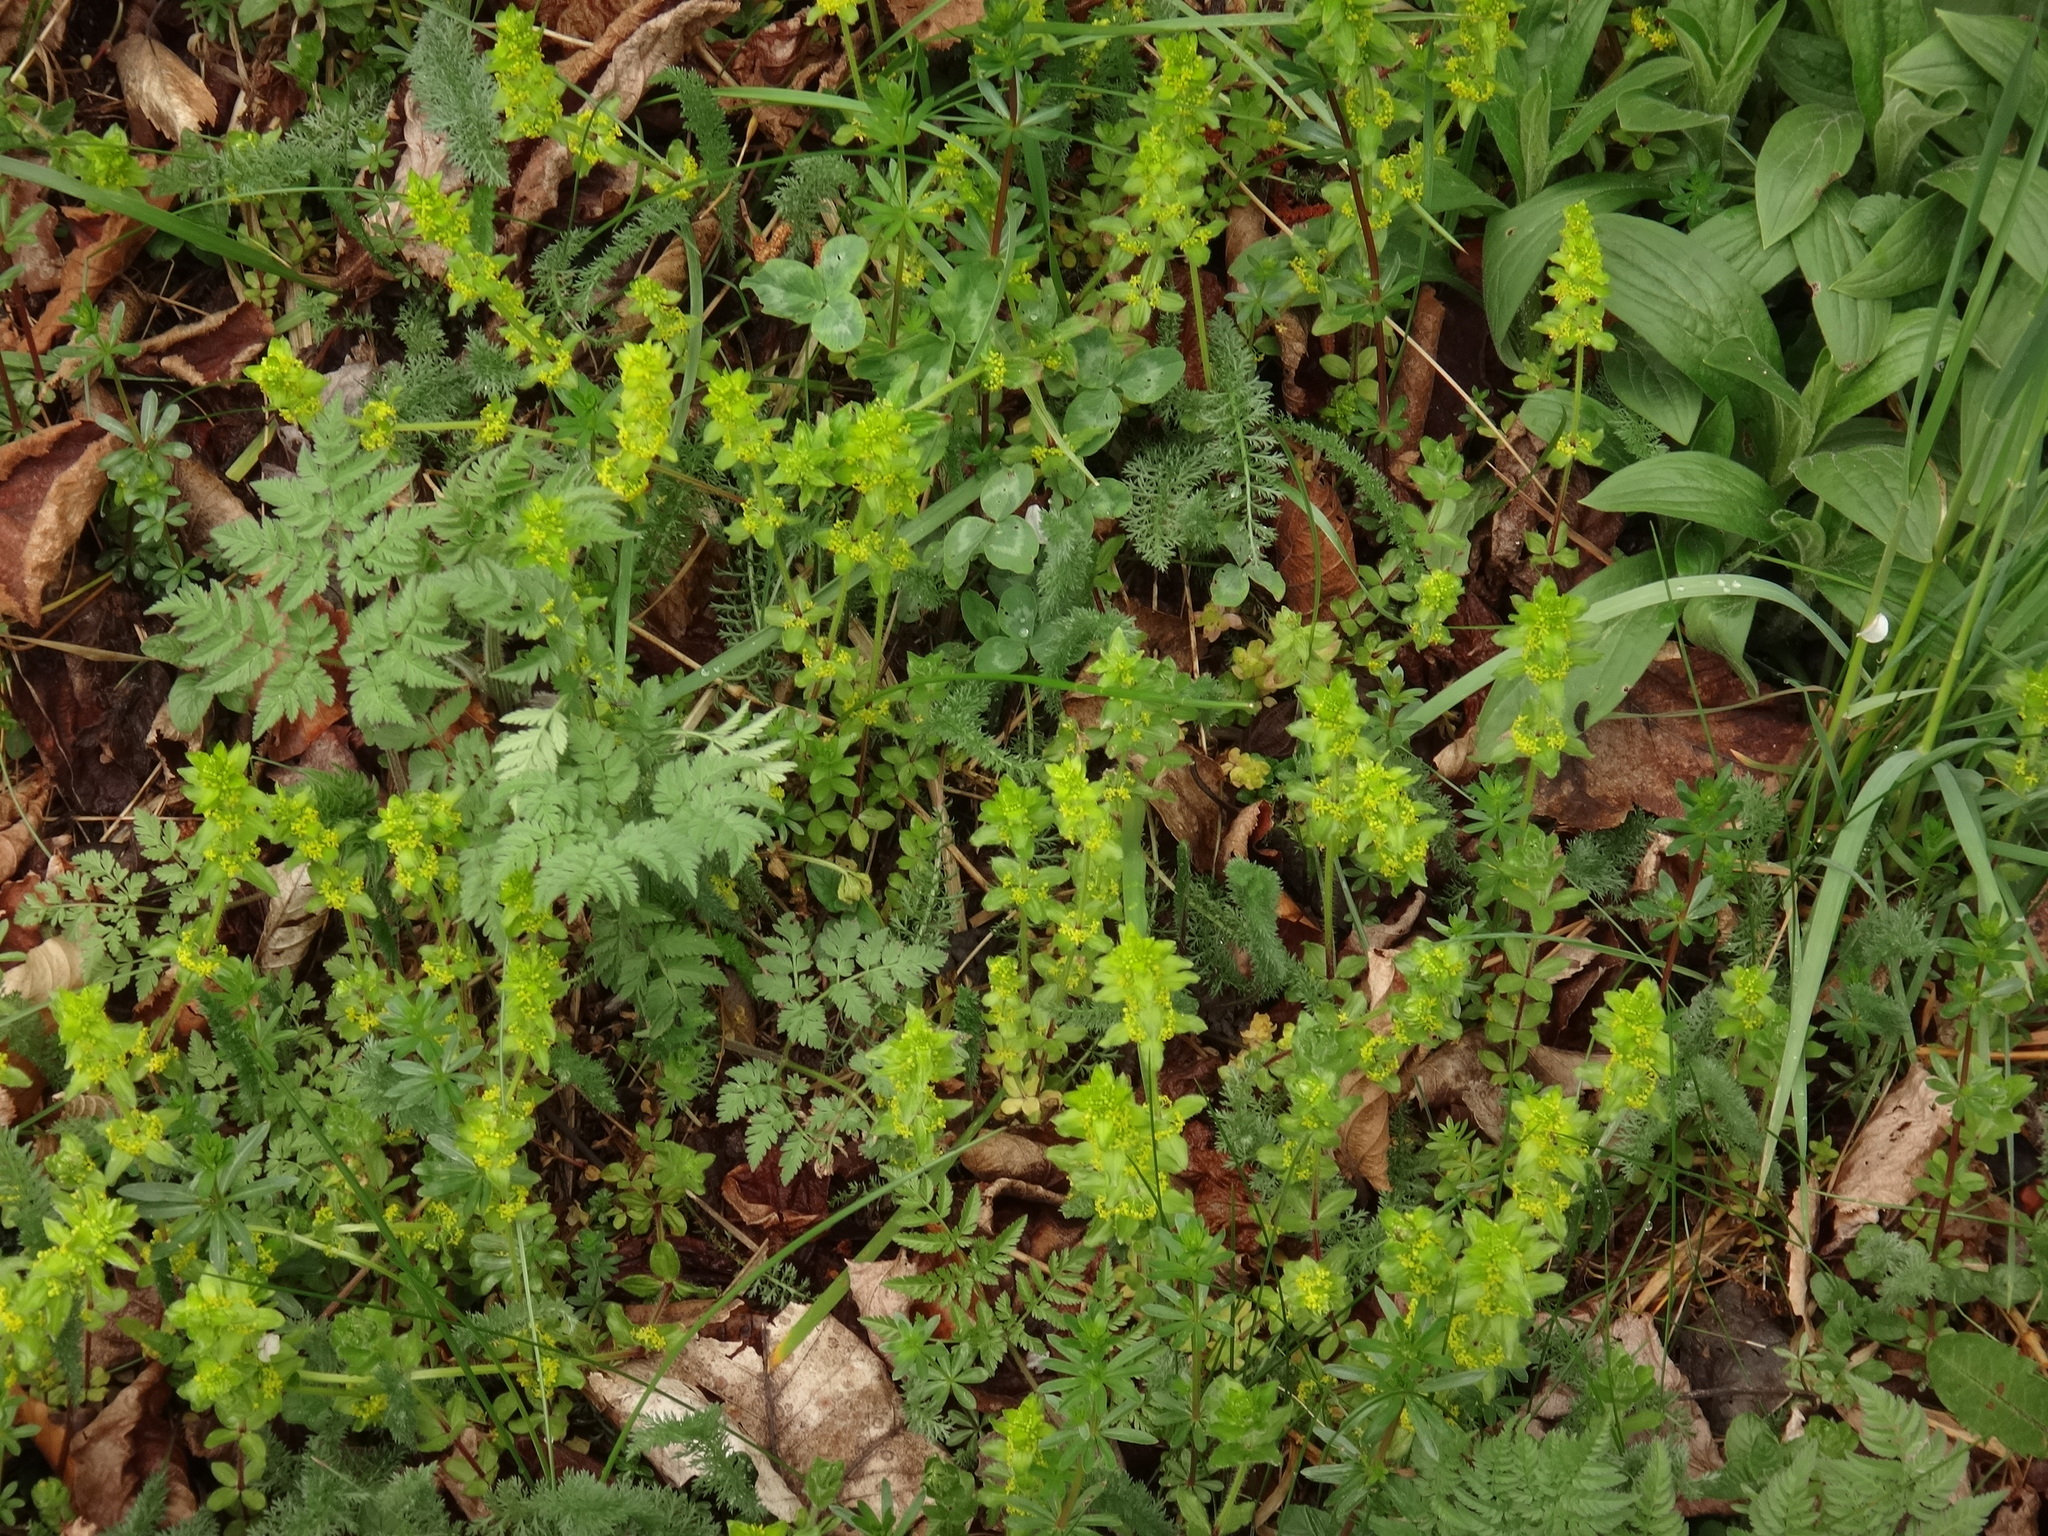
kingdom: Plantae
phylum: Tracheophyta
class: Magnoliopsida
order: Gentianales
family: Rubiaceae
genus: Cruciata
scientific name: Cruciata laevipes
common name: Crosswort
